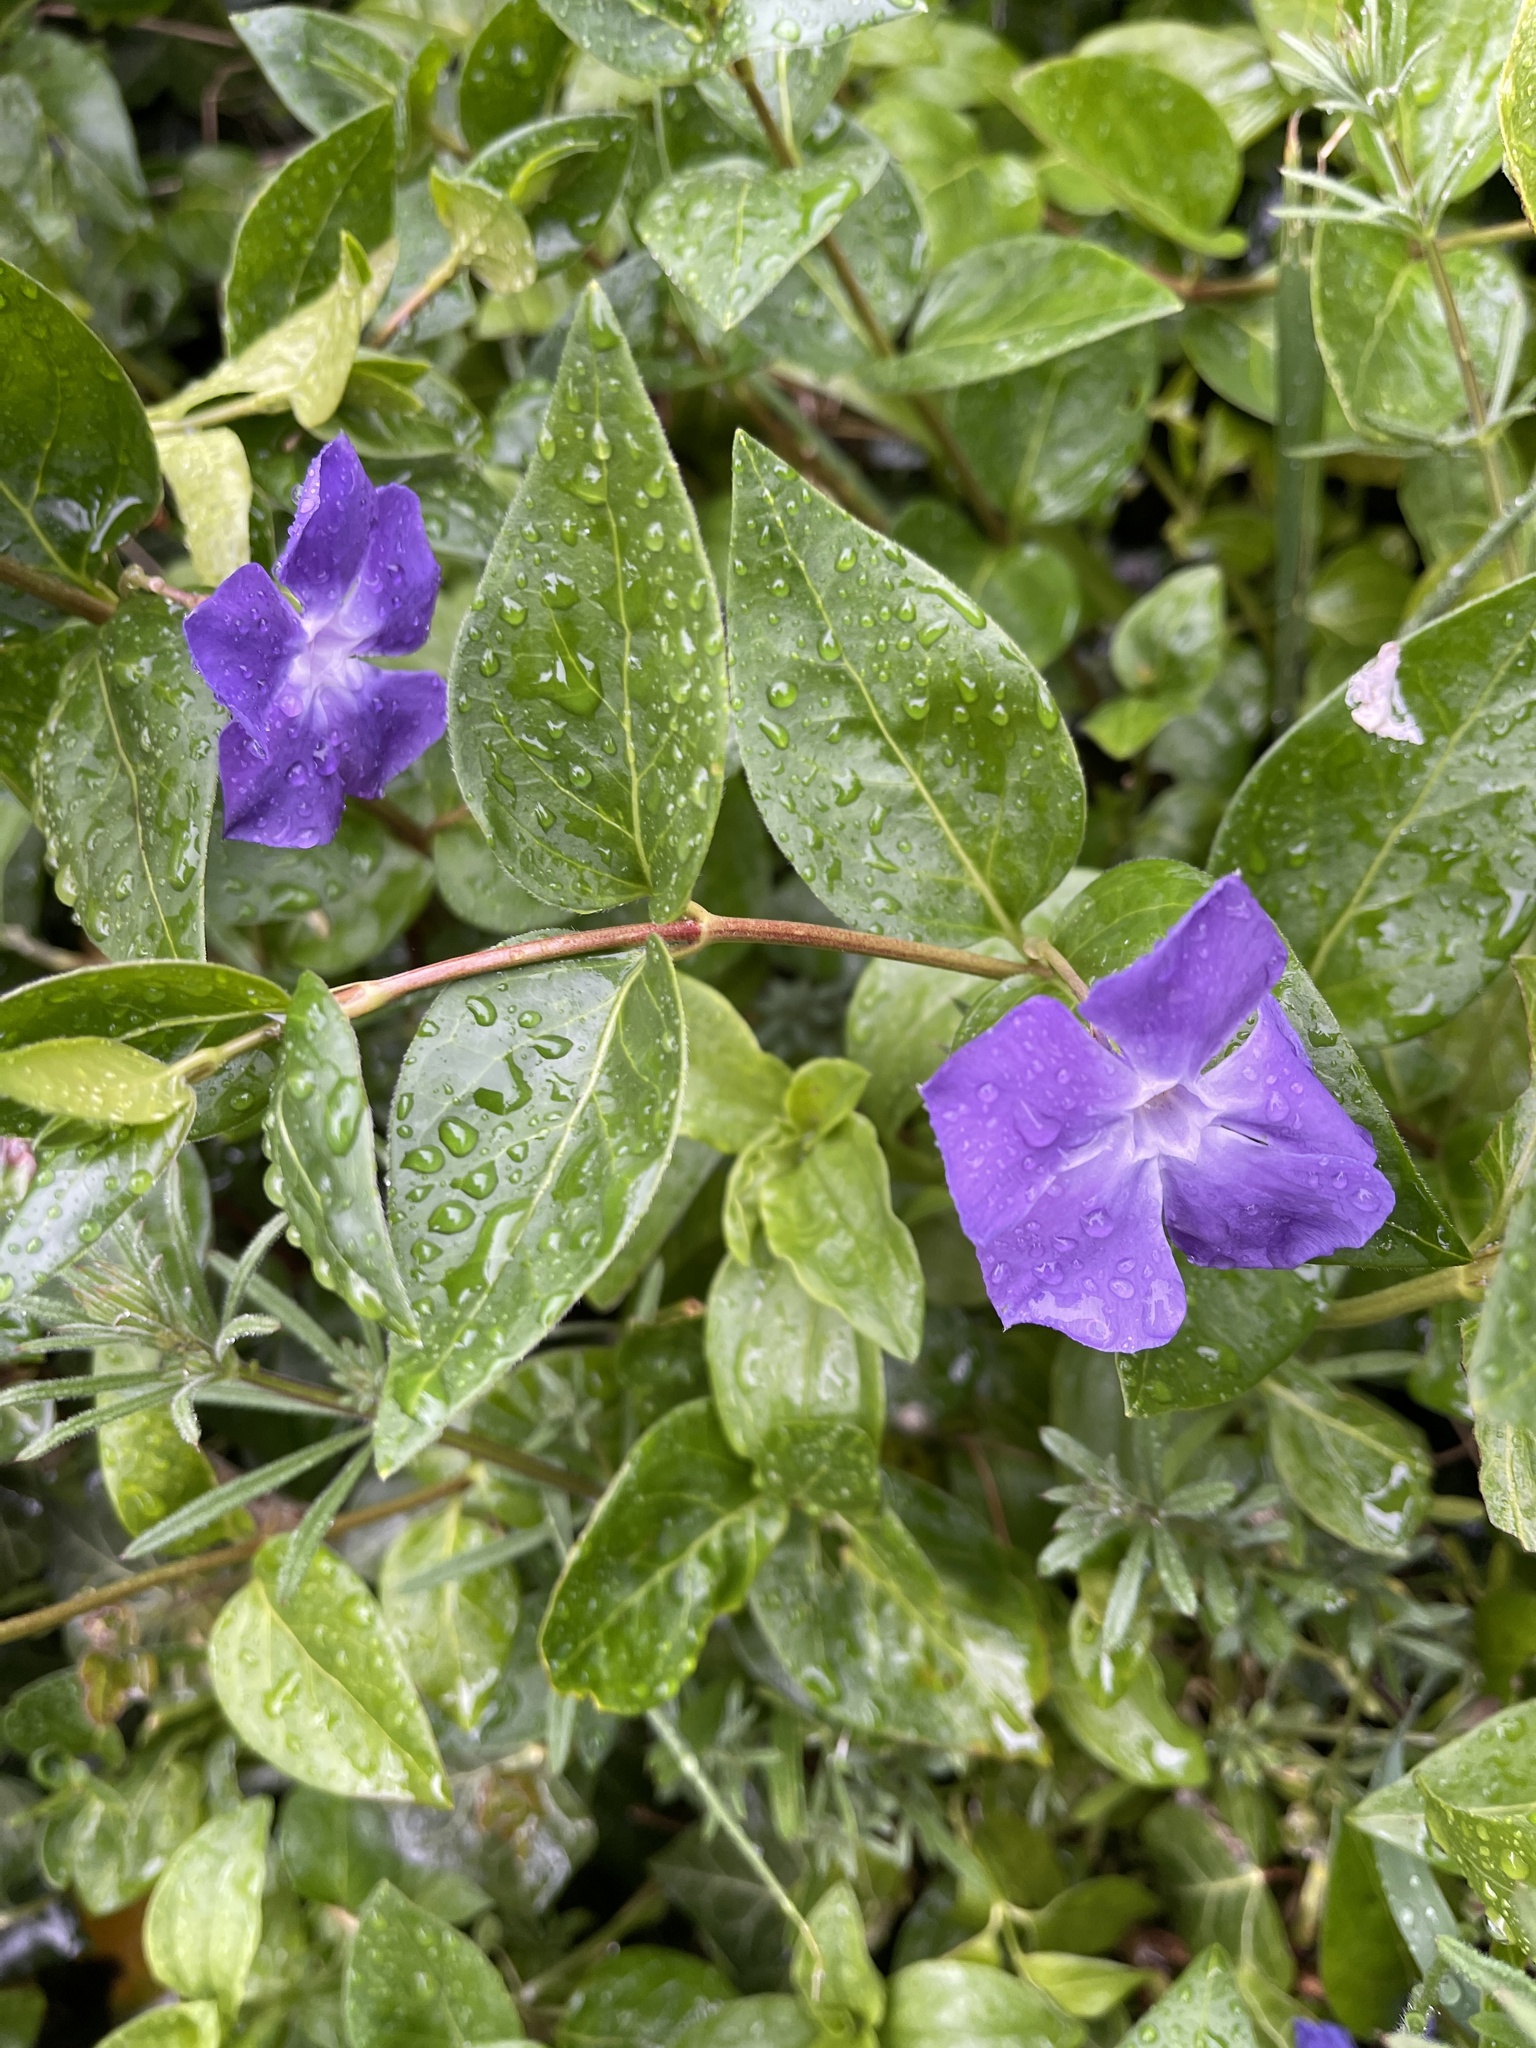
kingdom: Plantae
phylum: Tracheophyta
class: Magnoliopsida
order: Gentianales
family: Apocynaceae
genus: Vinca
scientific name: Vinca major
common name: Greater periwinkle
